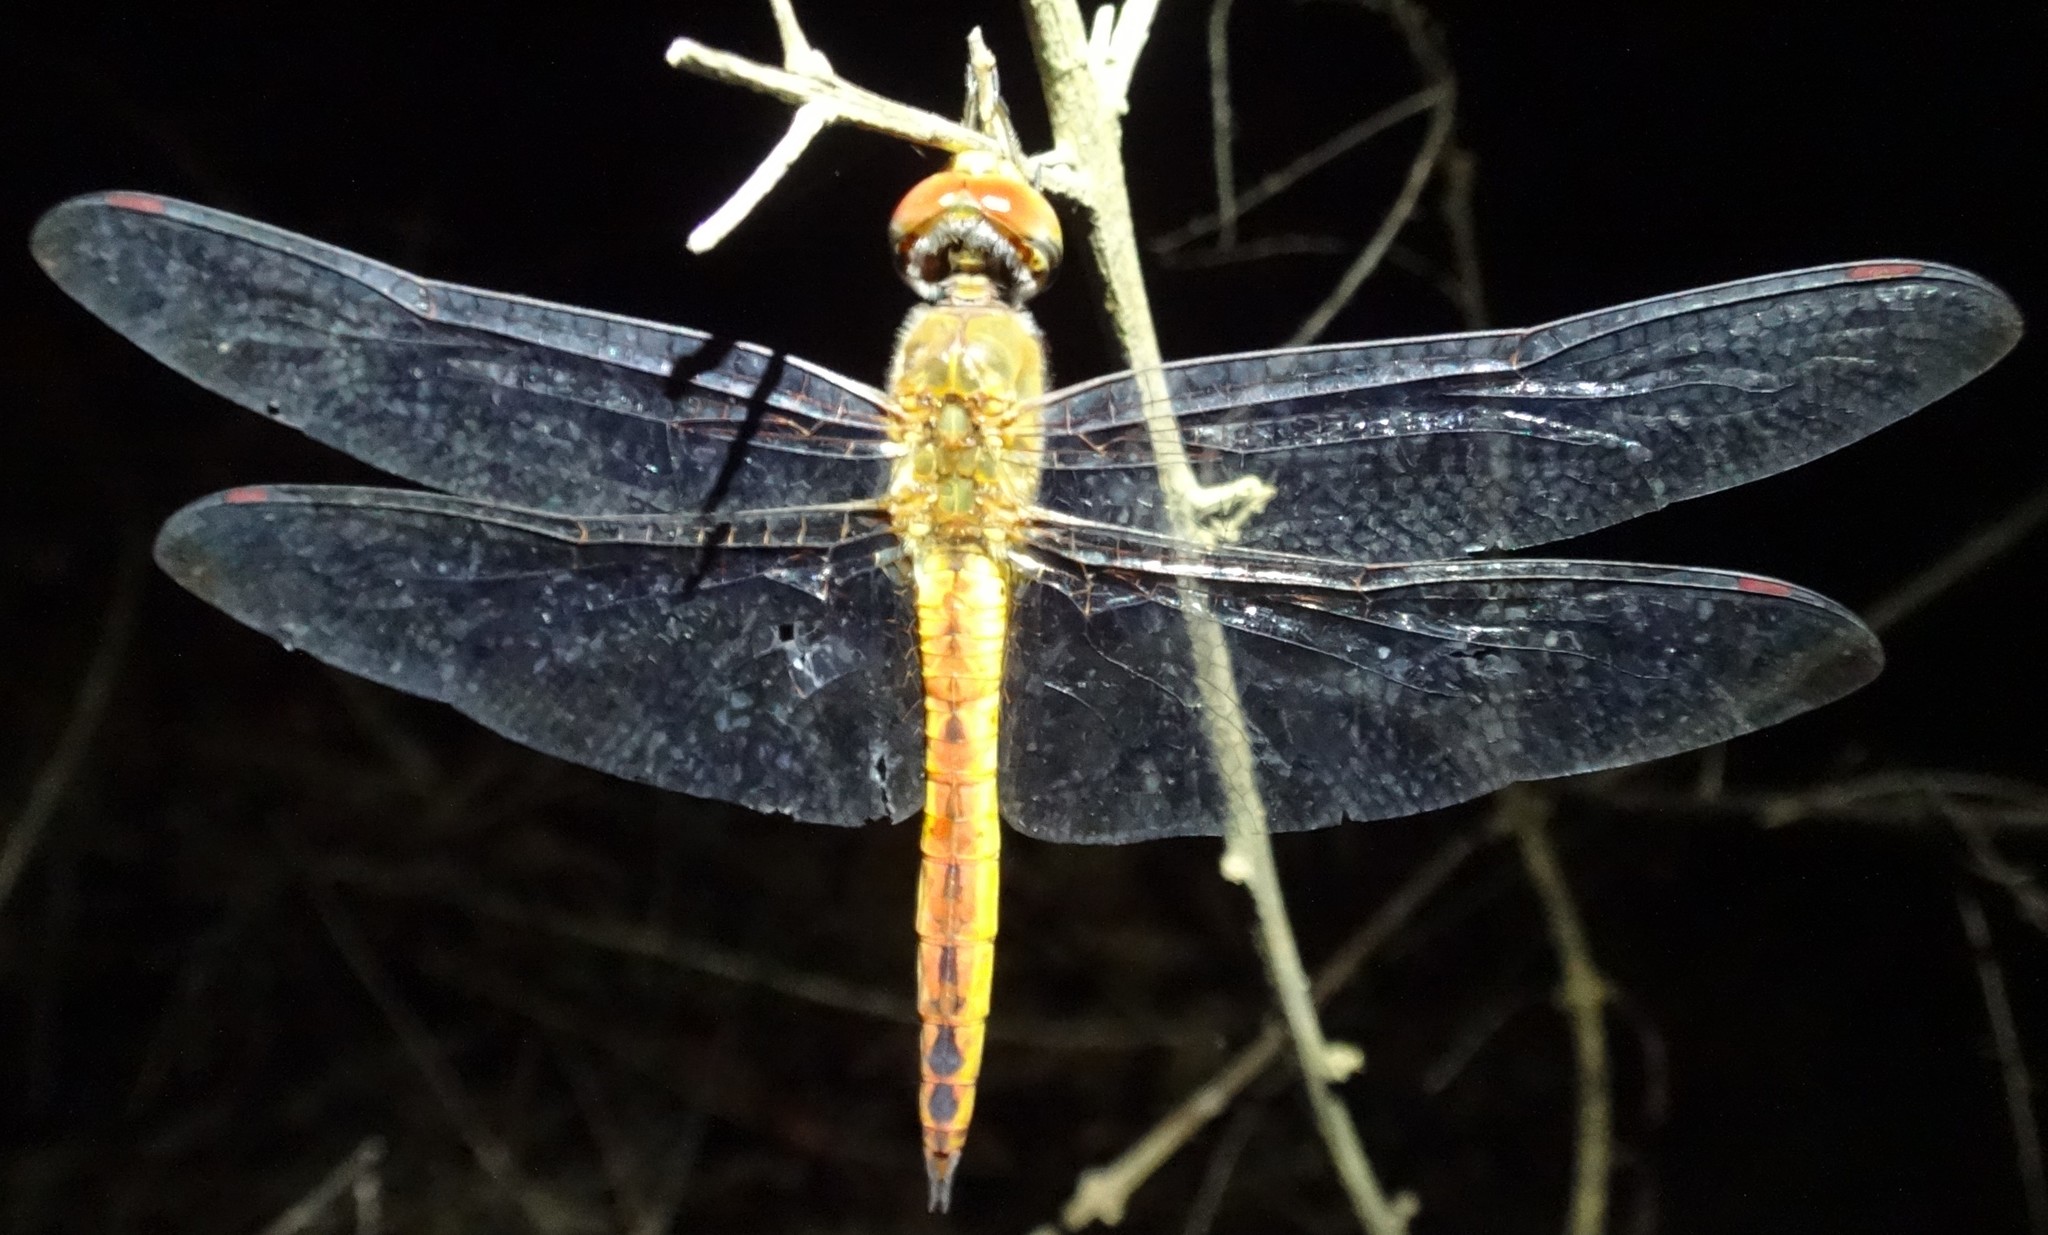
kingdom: Animalia
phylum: Arthropoda
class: Insecta
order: Odonata
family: Libellulidae
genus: Pantala
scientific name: Pantala flavescens
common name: Wandering glider
